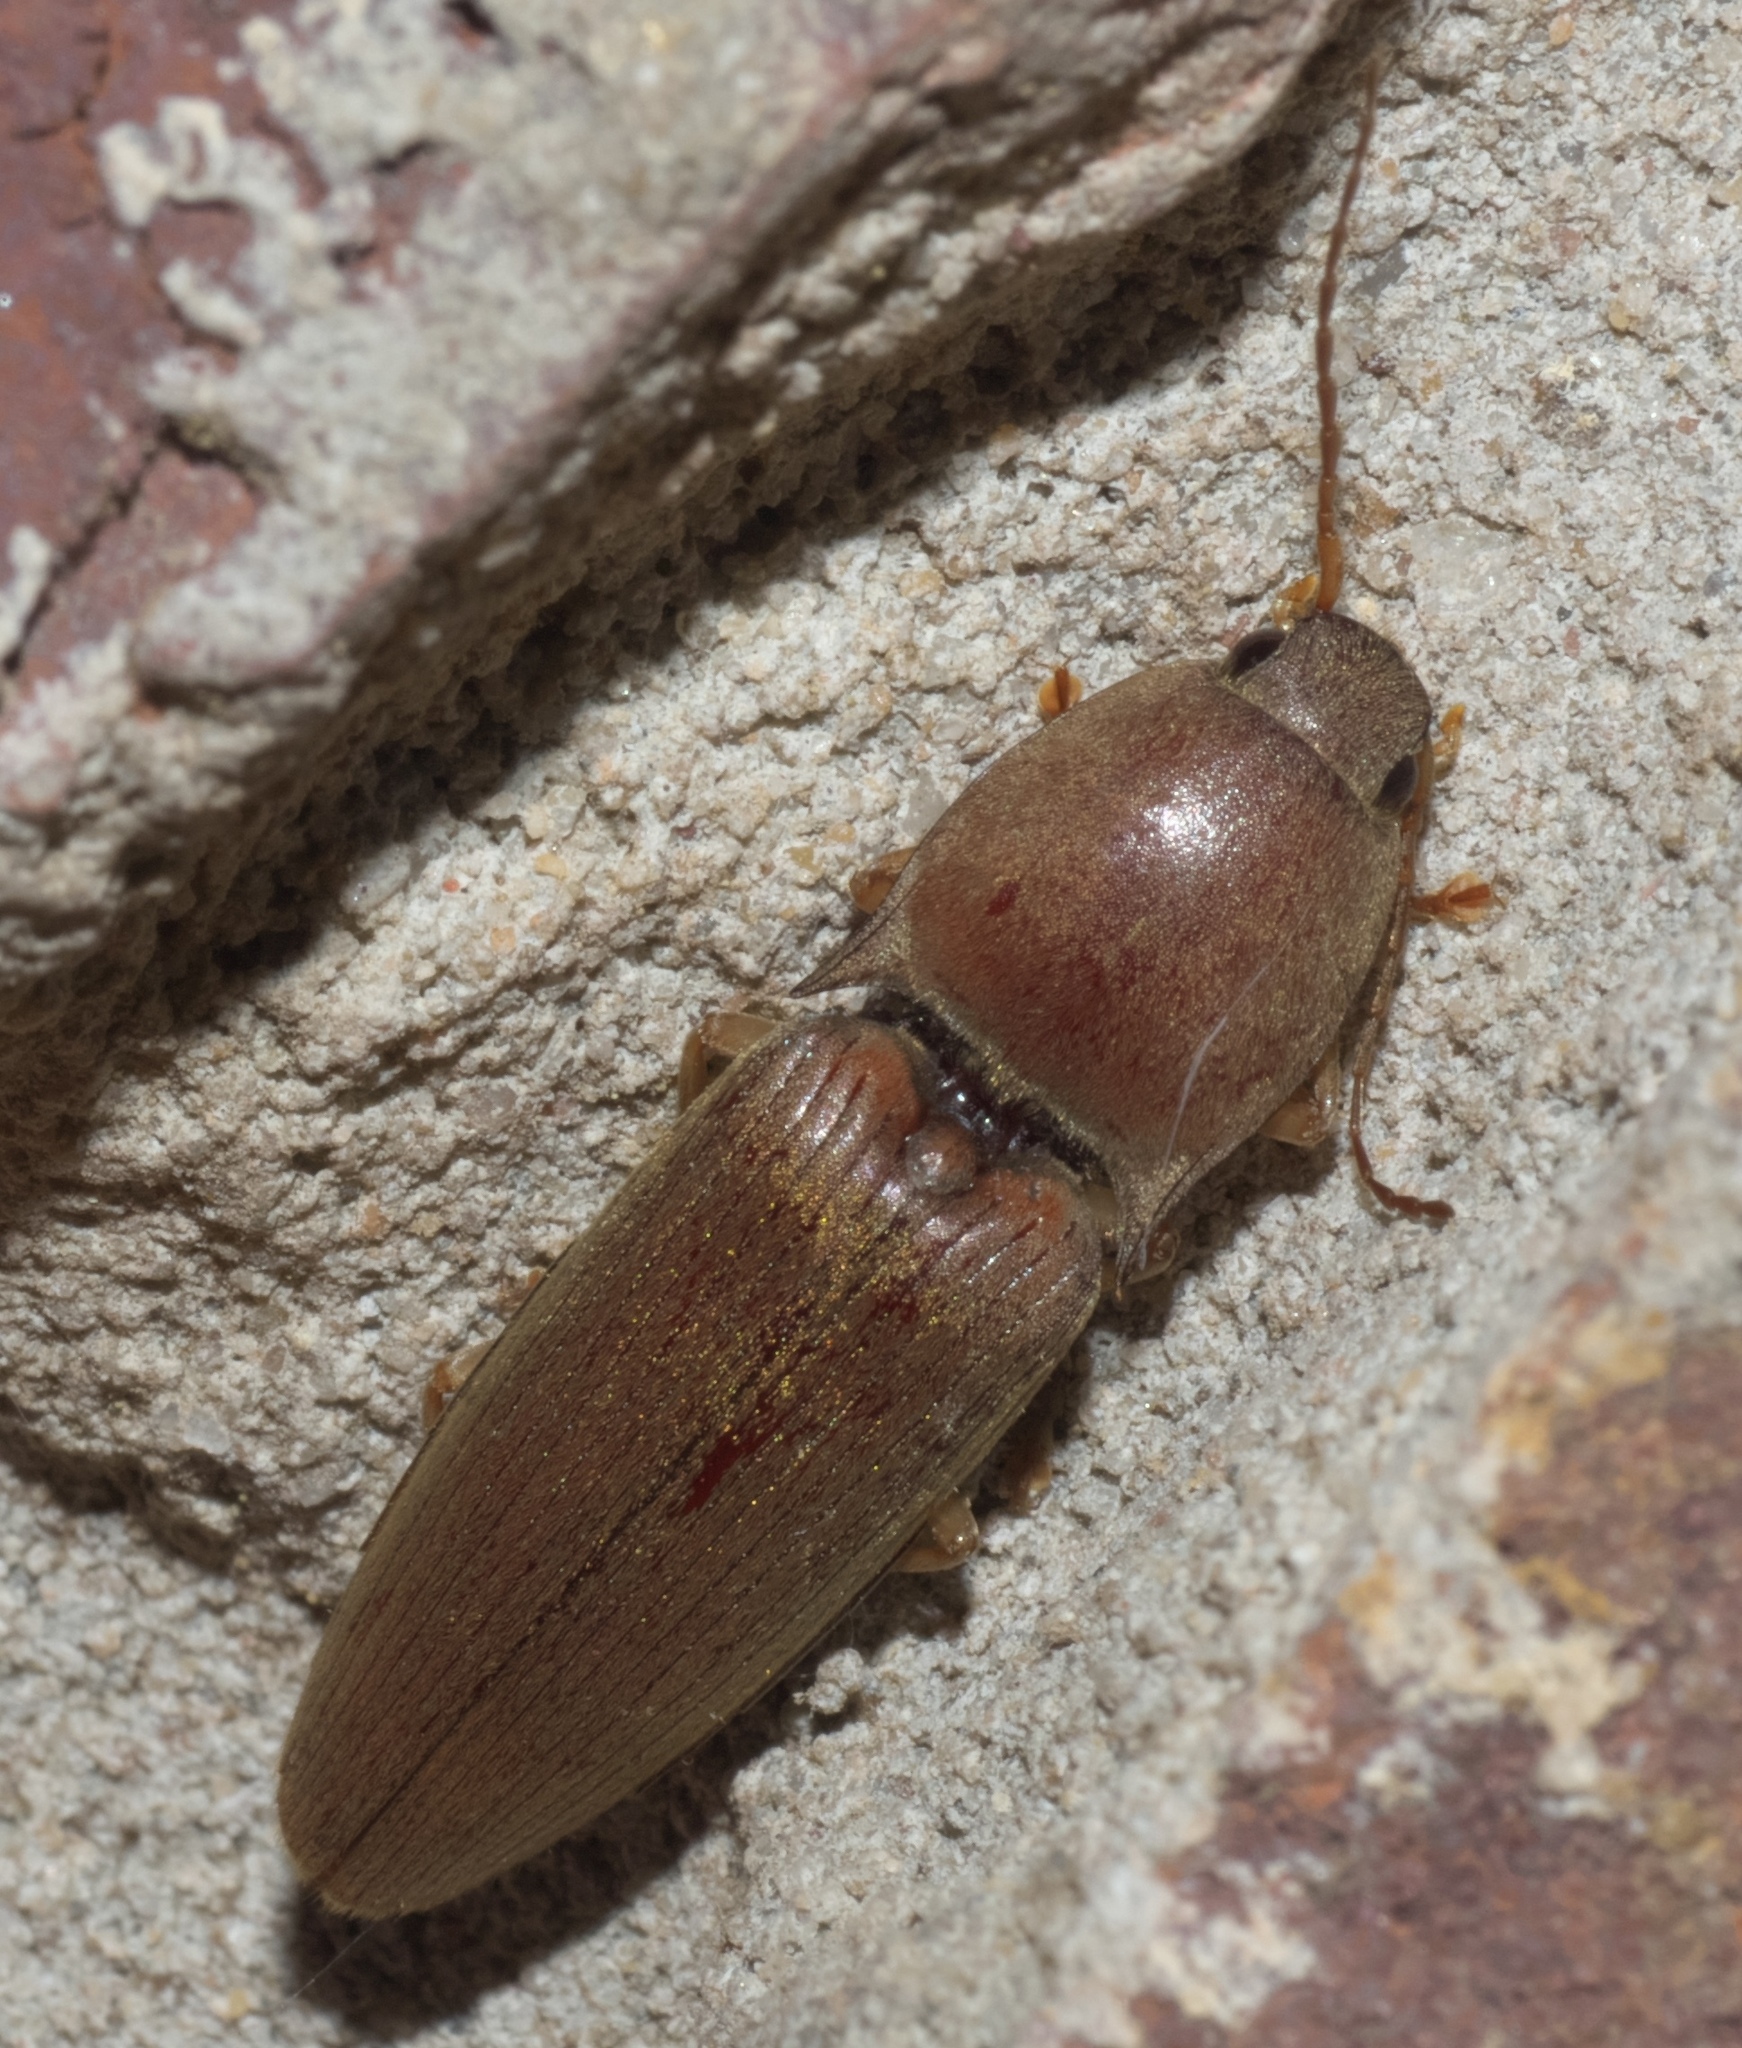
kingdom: Animalia
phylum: Arthropoda
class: Insecta
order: Coleoptera
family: Elateridae
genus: Monocrepidius
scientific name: Monocrepidius lividus
